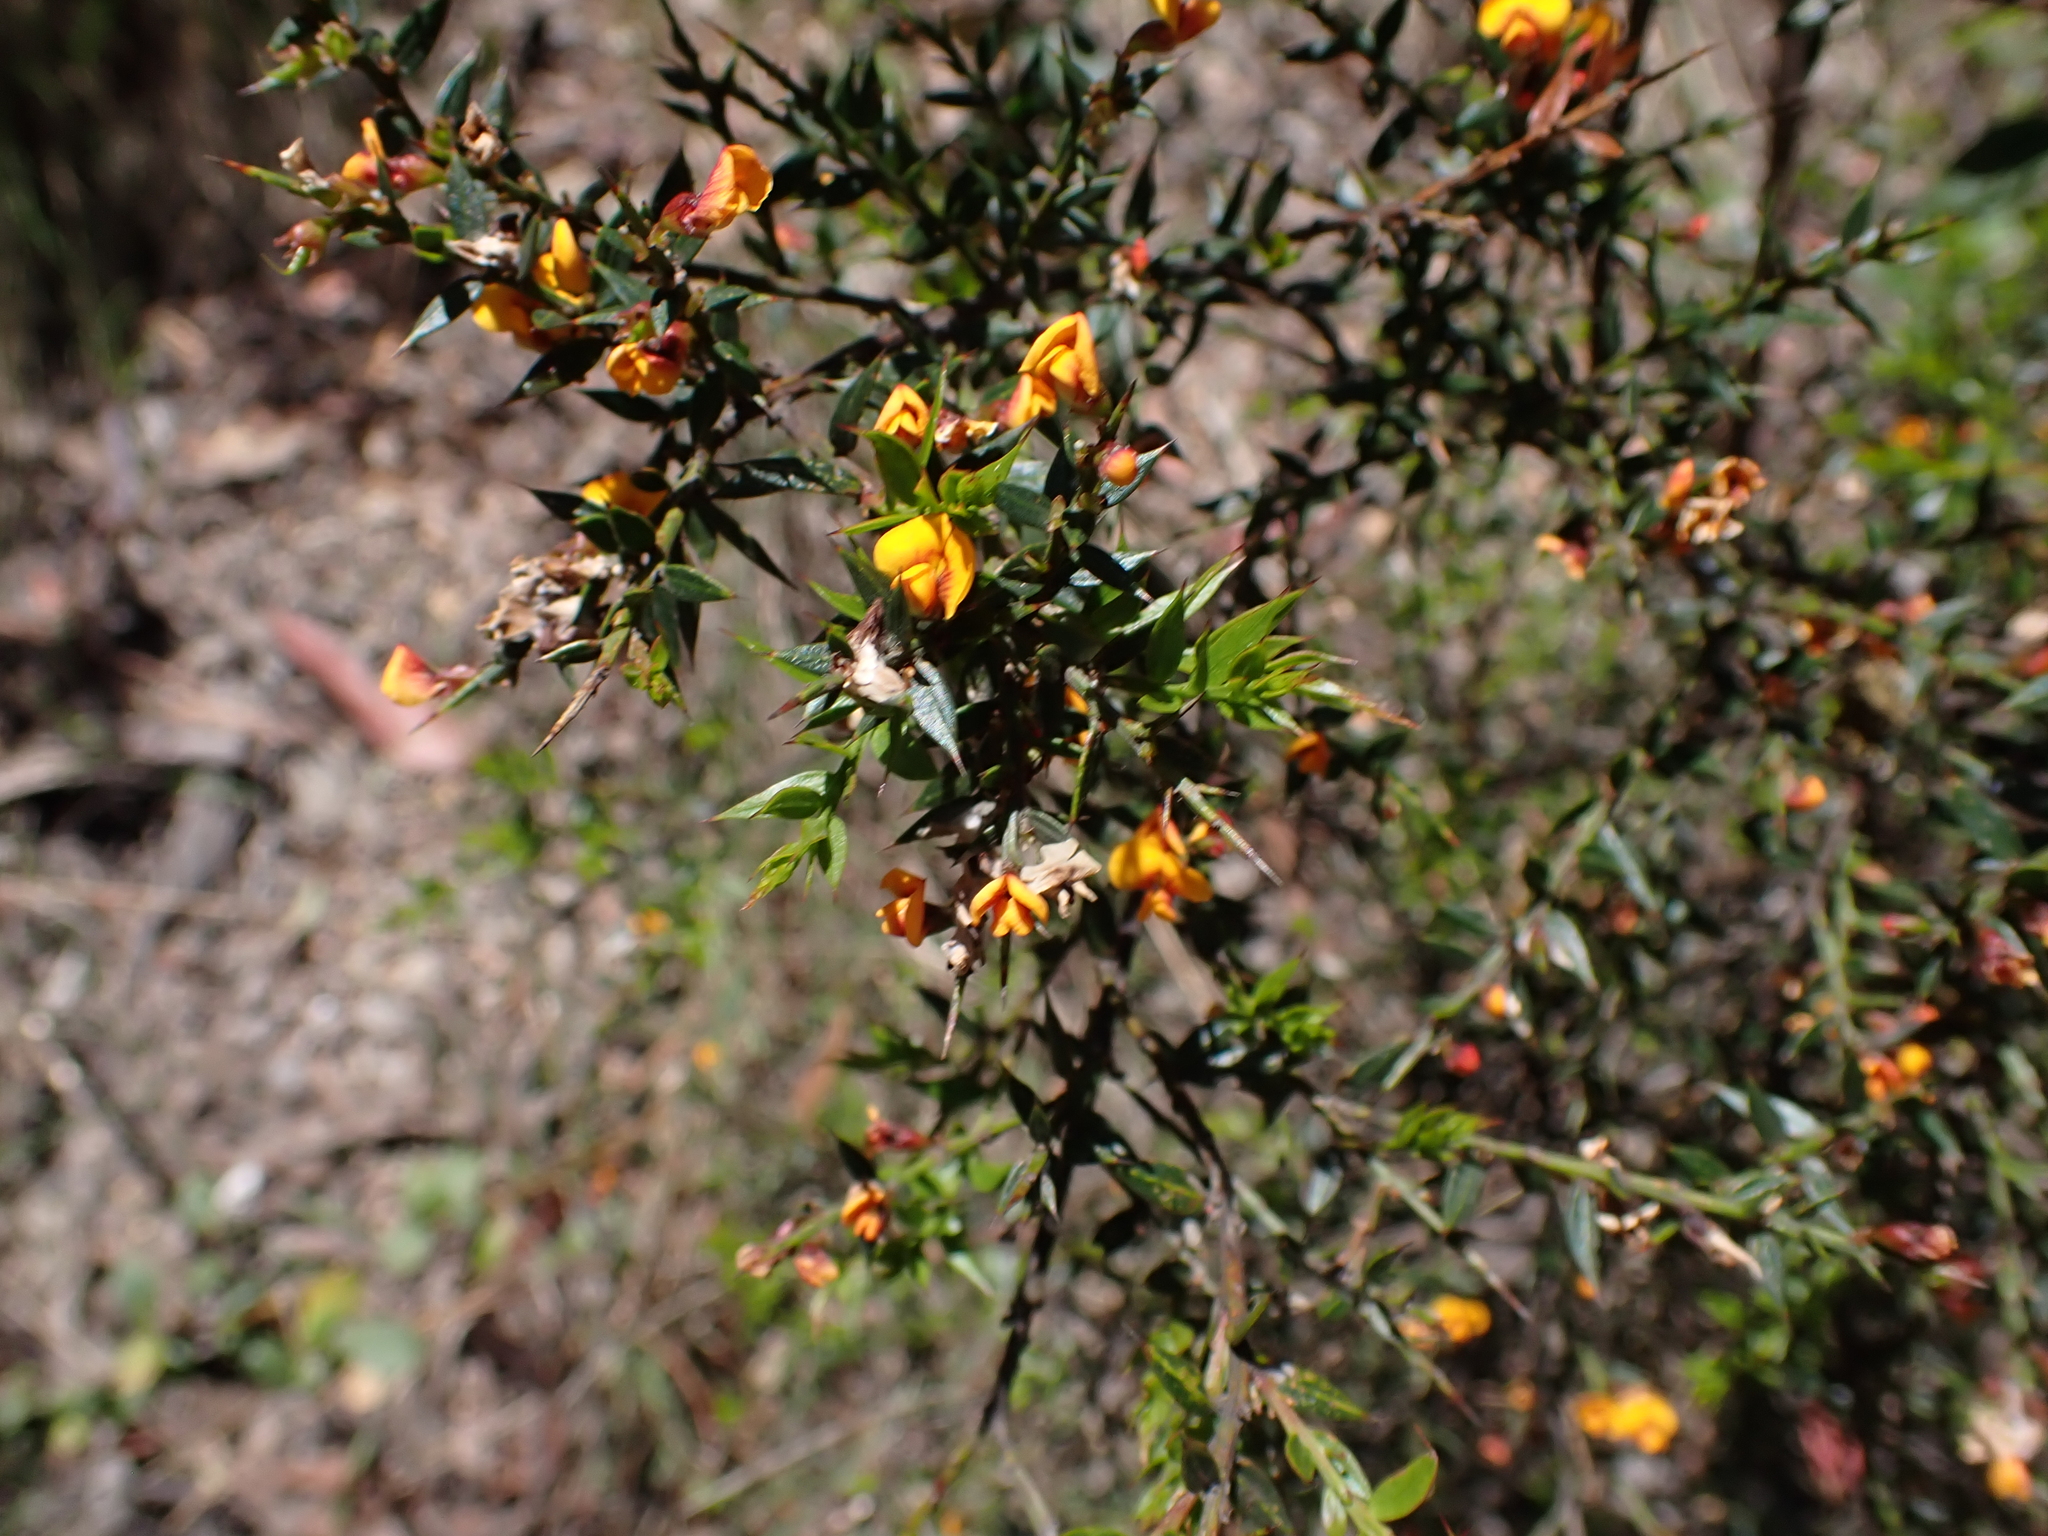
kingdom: Plantae
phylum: Tracheophyta
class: Magnoliopsida
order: Fabales
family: Fabaceae
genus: Daviesia
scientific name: Daviesia ulicifolia
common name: Gorse bitter-pea
